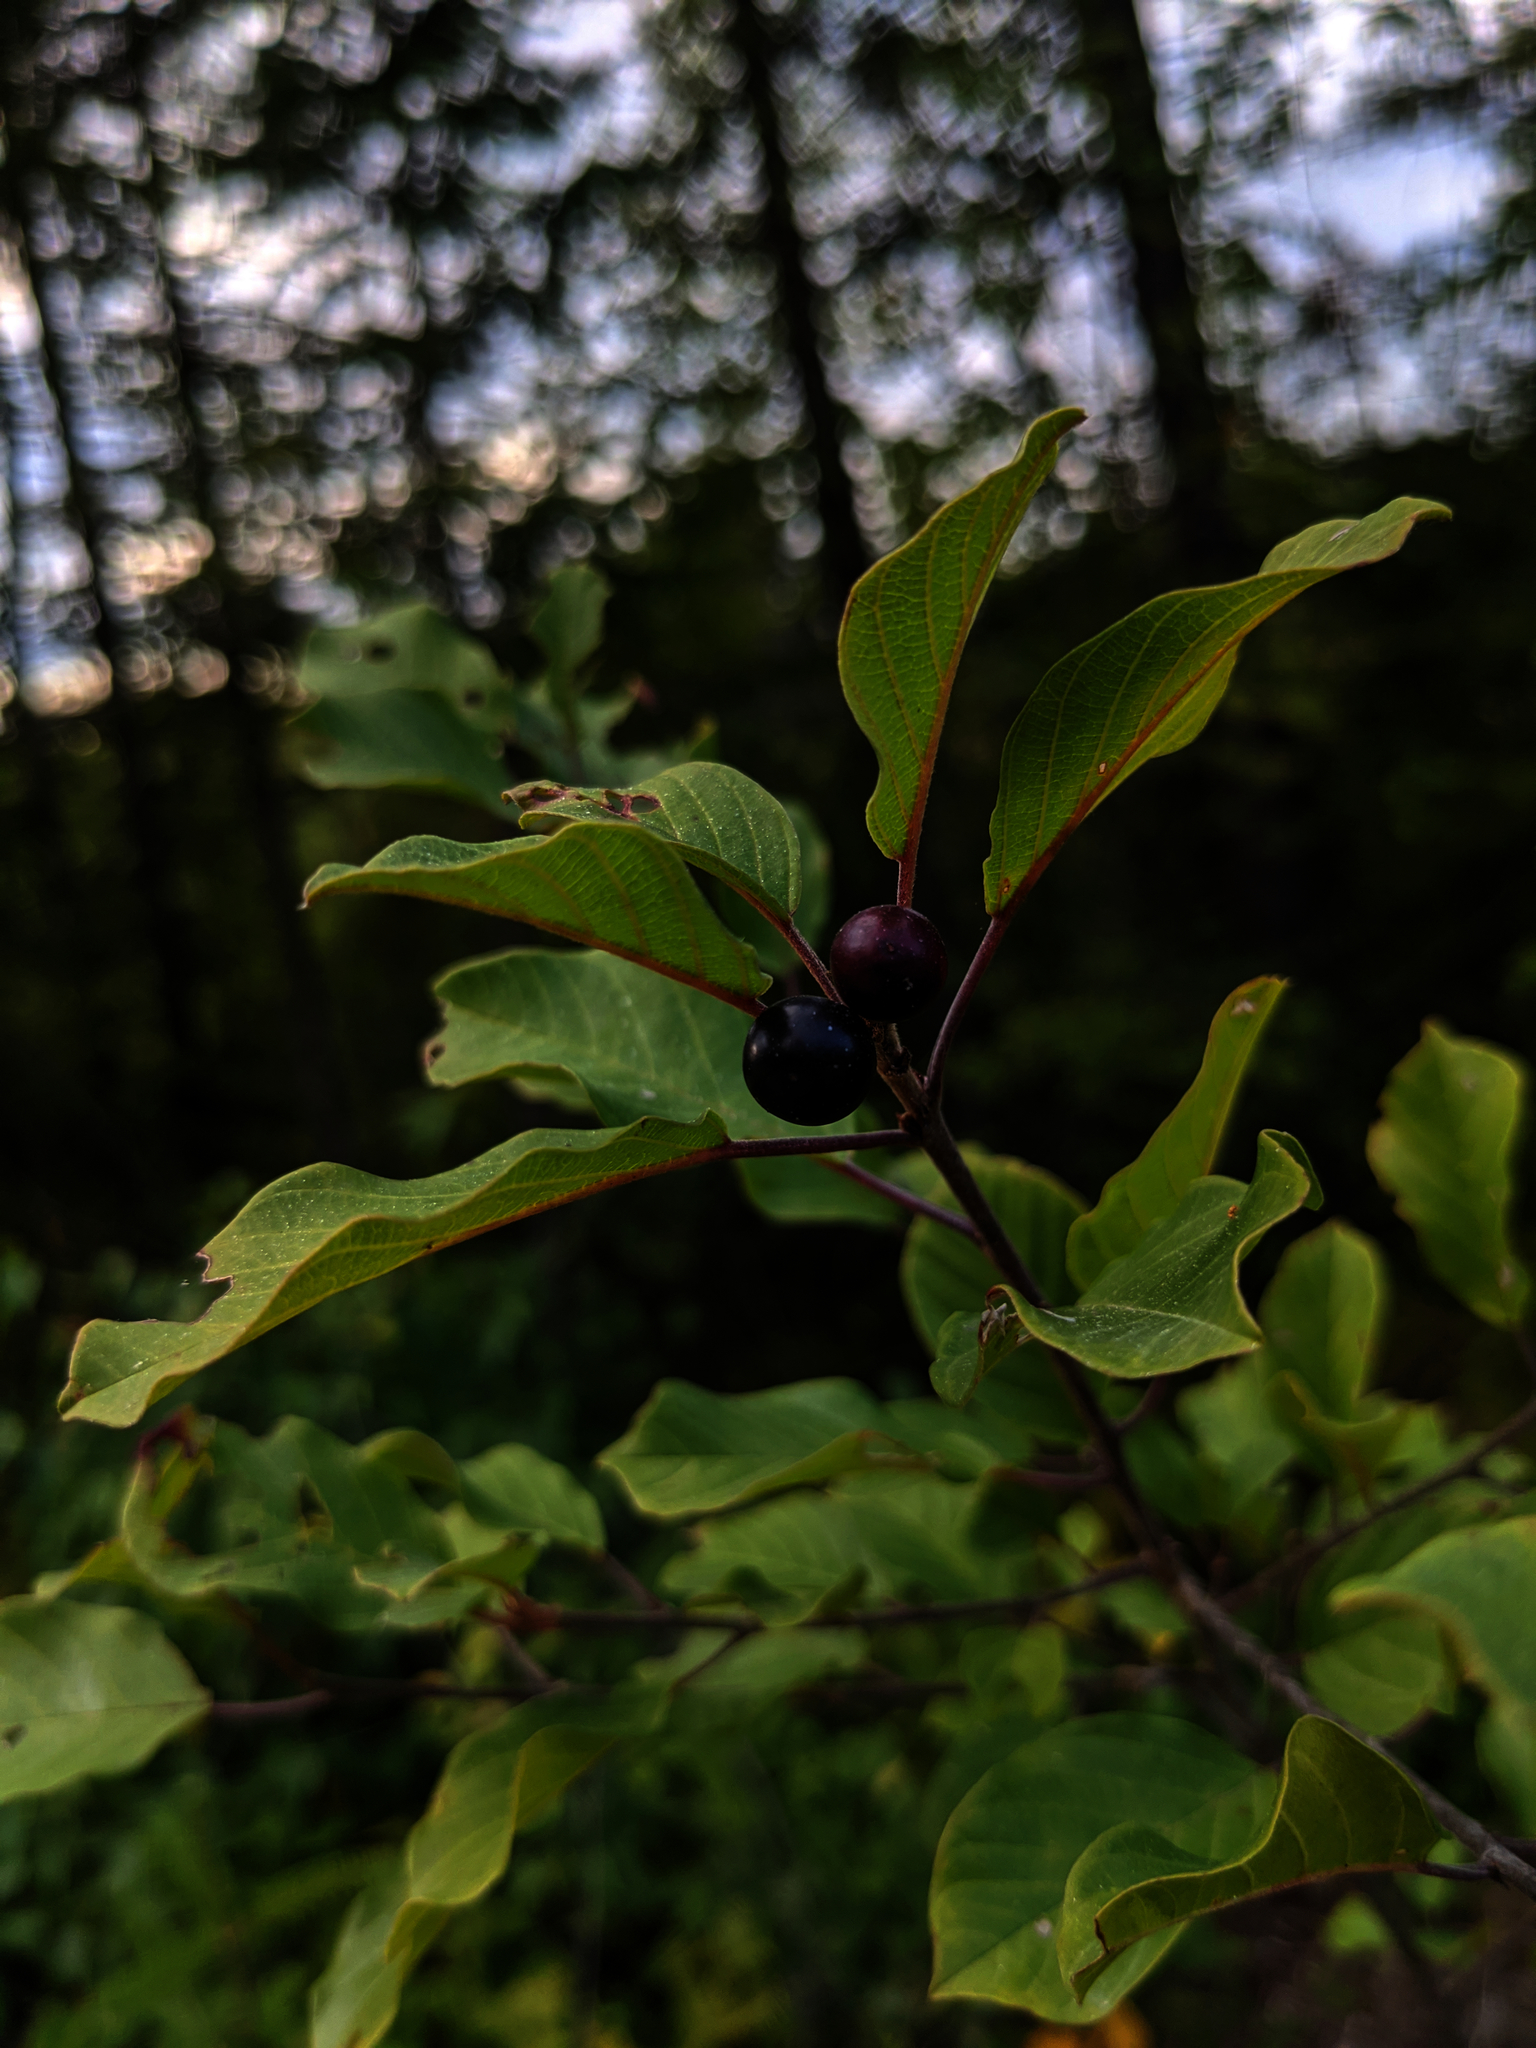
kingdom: Plantae
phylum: Tracheophyta
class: Magnoliopsida
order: Rosales
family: Rhamnaceae
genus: Frangula
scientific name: Frangula alnus
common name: Alder buckthorn
